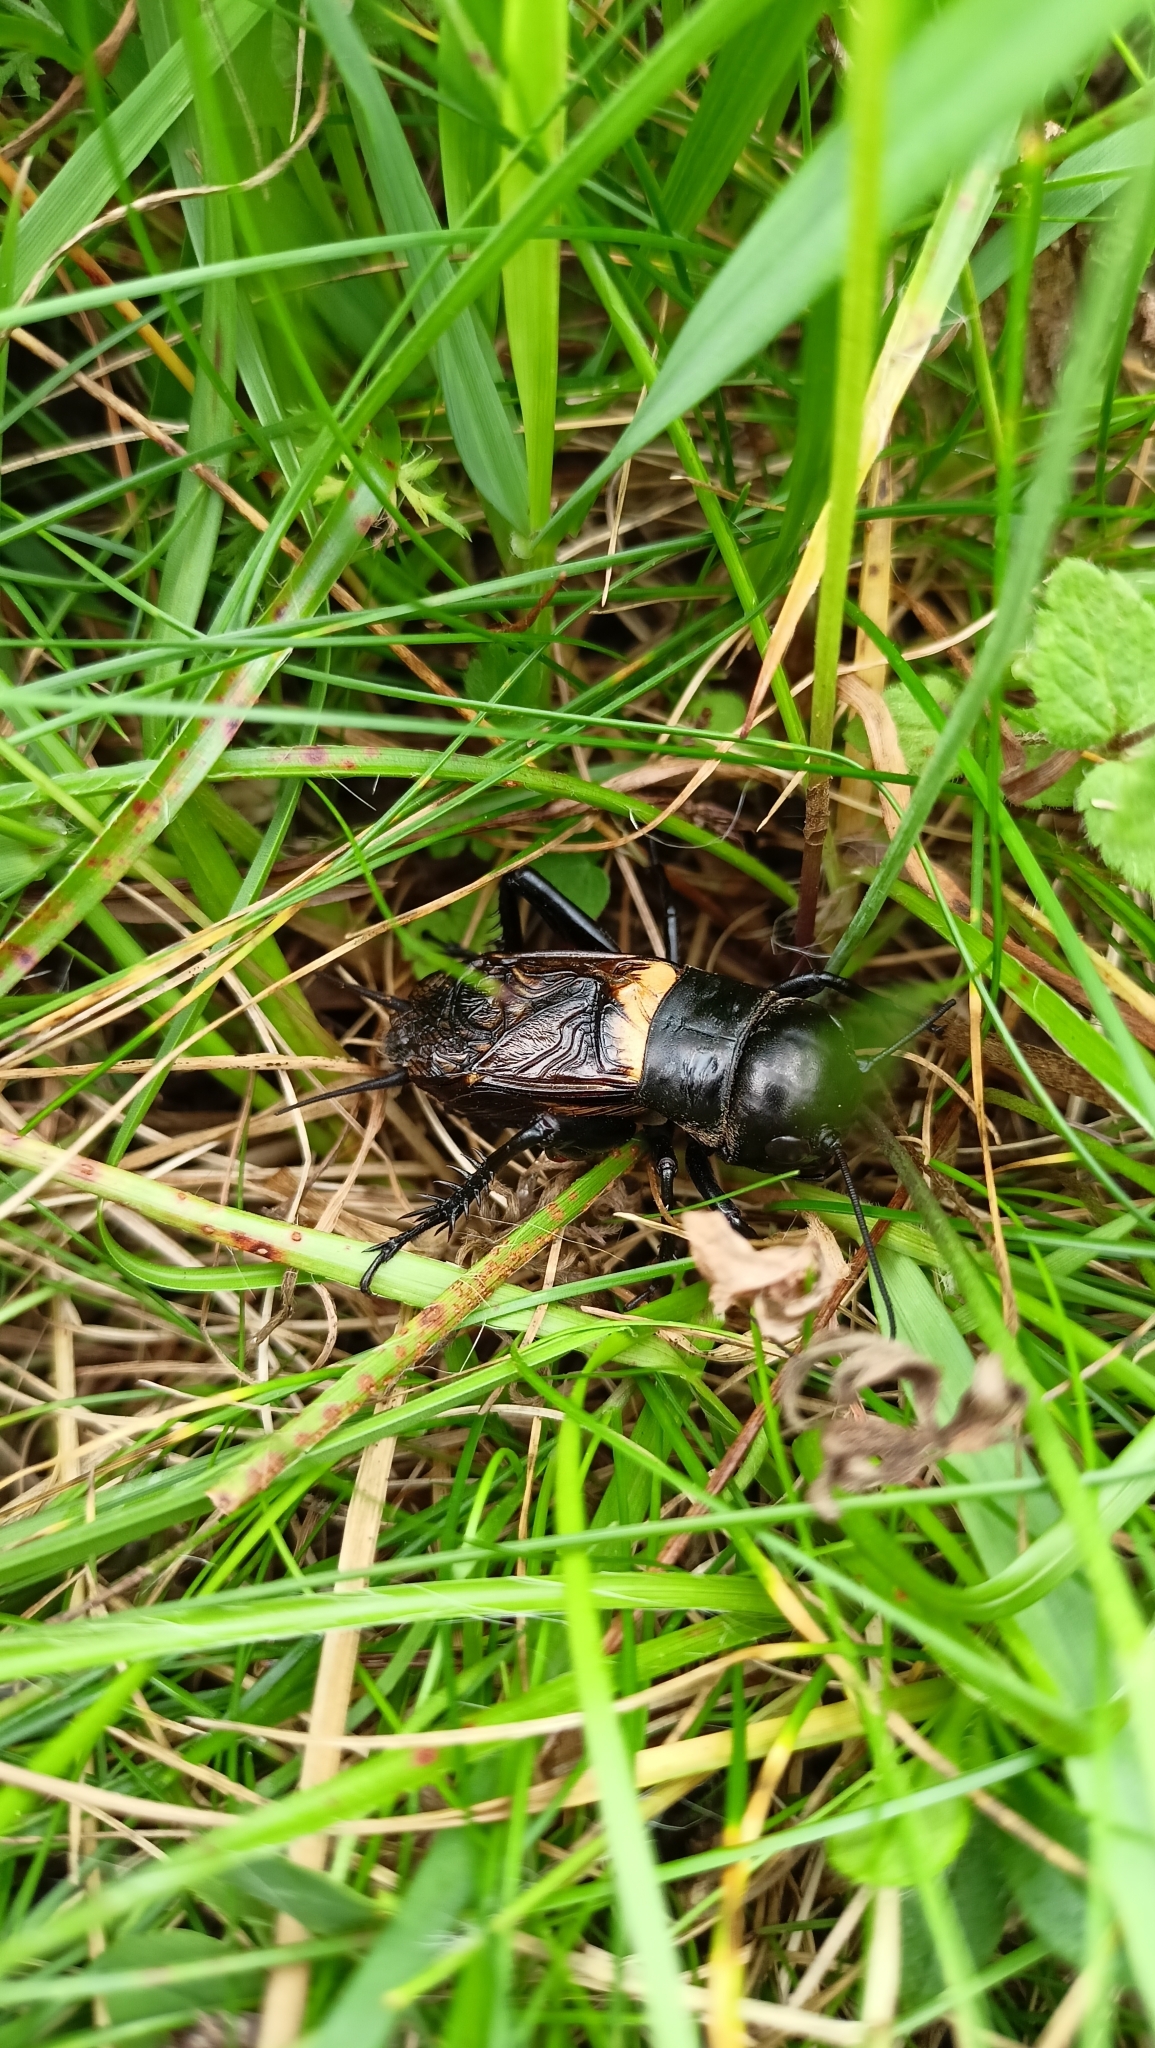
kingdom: Animalia
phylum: Arthropoda
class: Insecta
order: Orthoptera
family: Gryllidae
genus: Gryllus
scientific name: Gryllus campestris
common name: Field cricket
